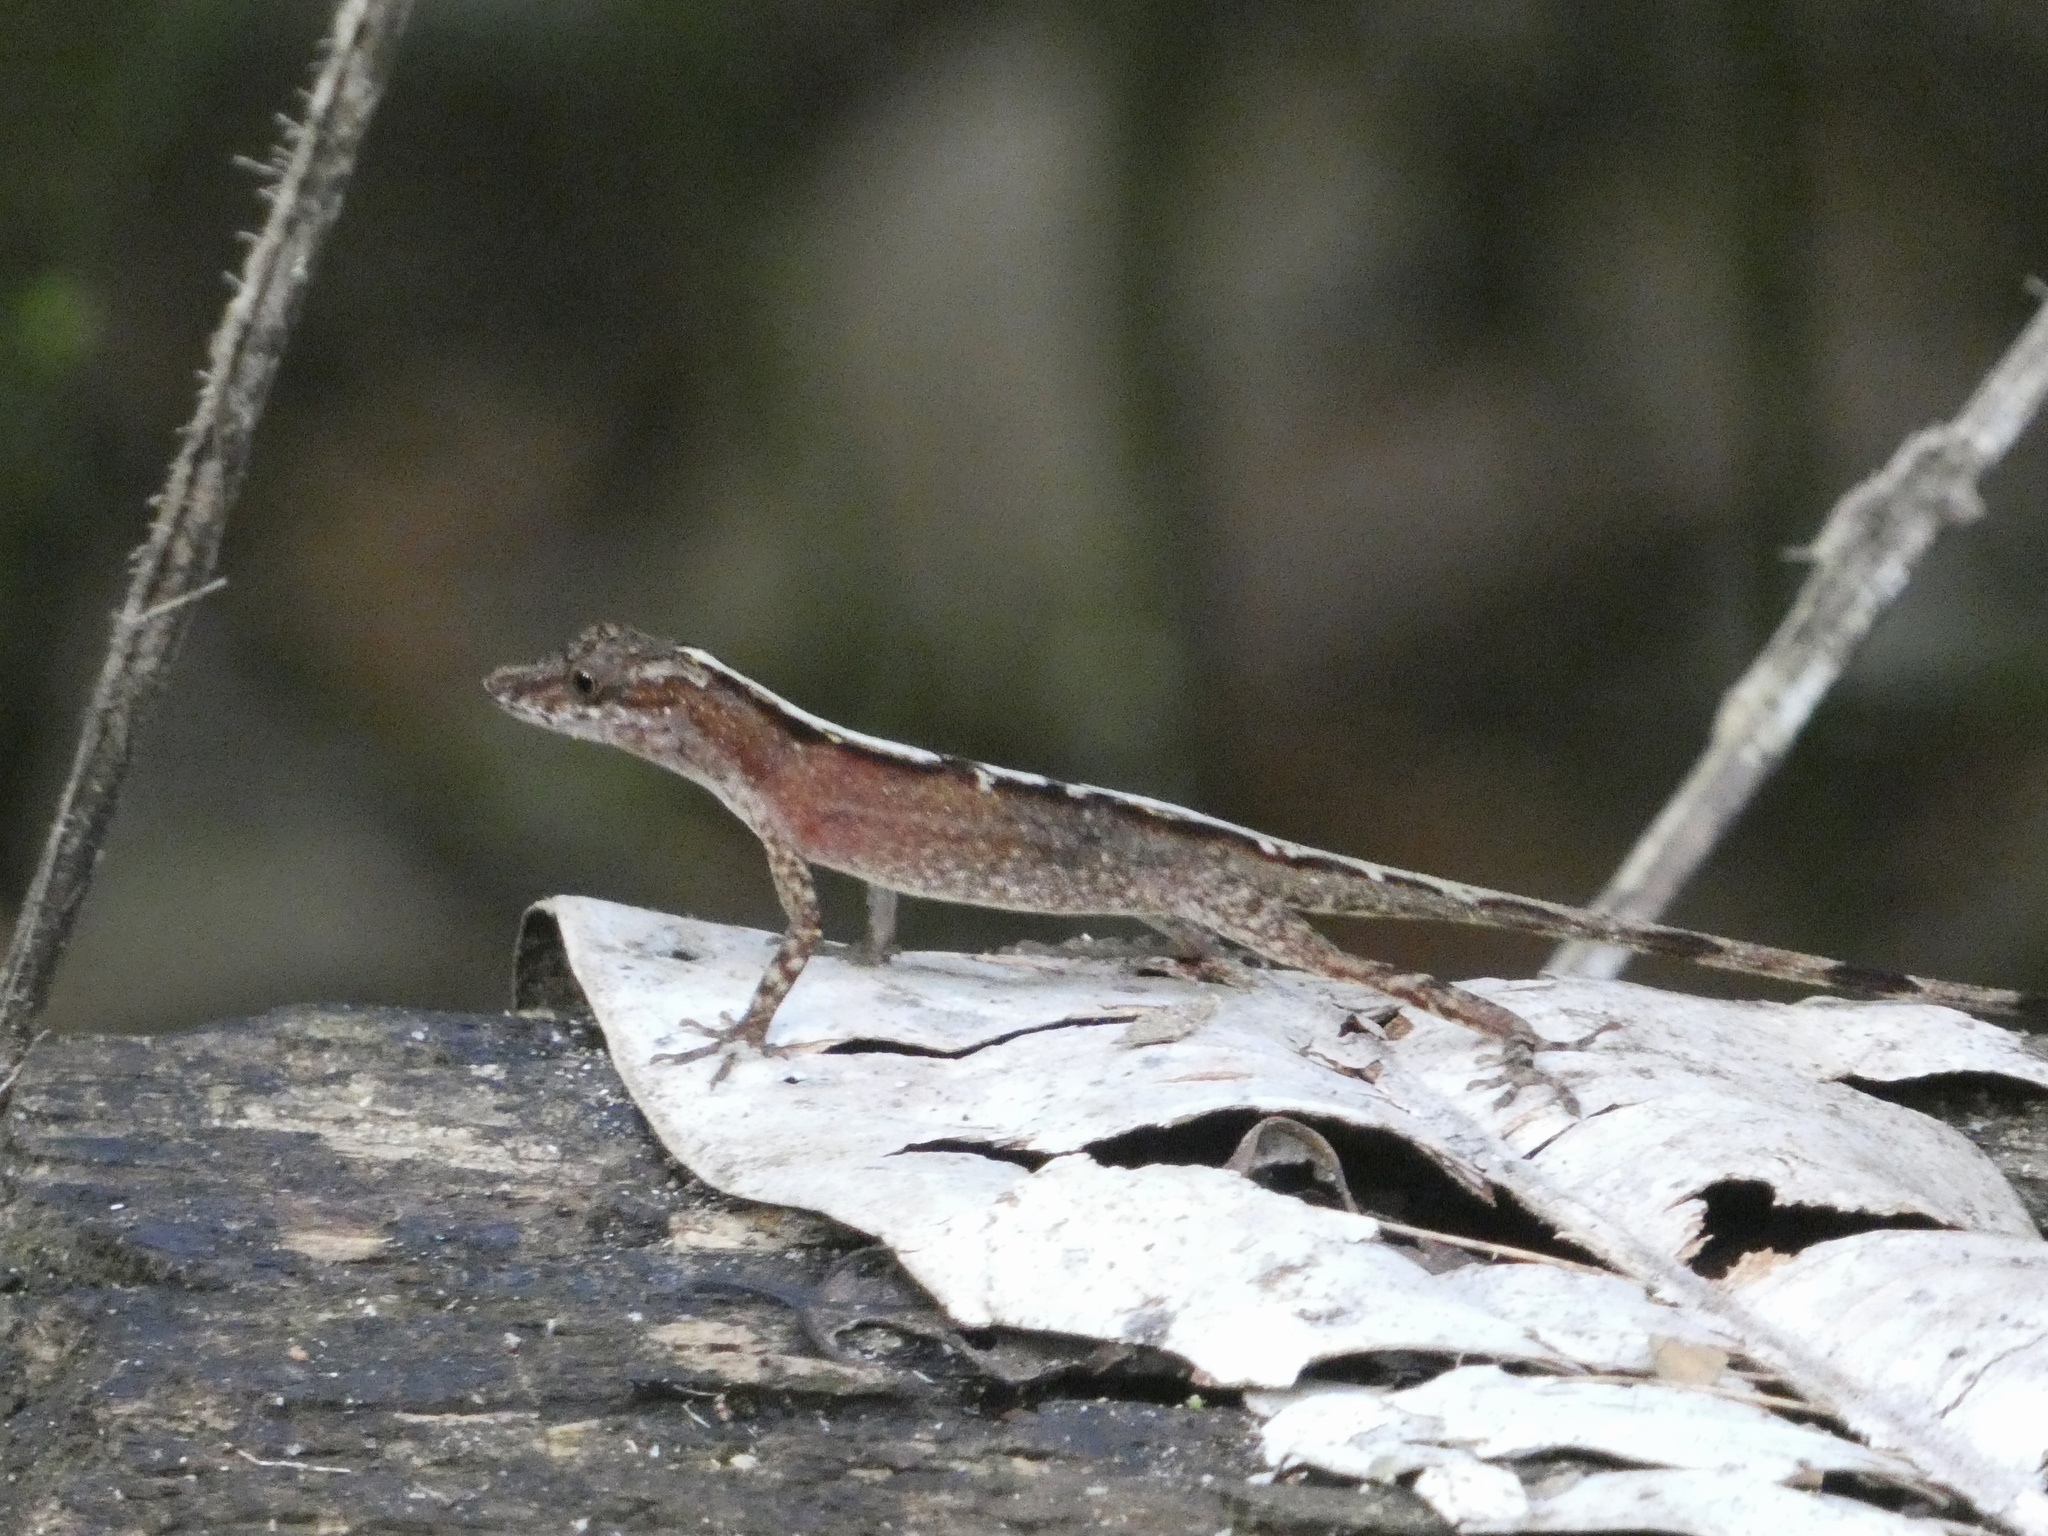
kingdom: Animalia
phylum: Chordata
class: Squamata
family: Dactyloidae
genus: Anolis
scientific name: Anolis limifrons
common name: Border anole
